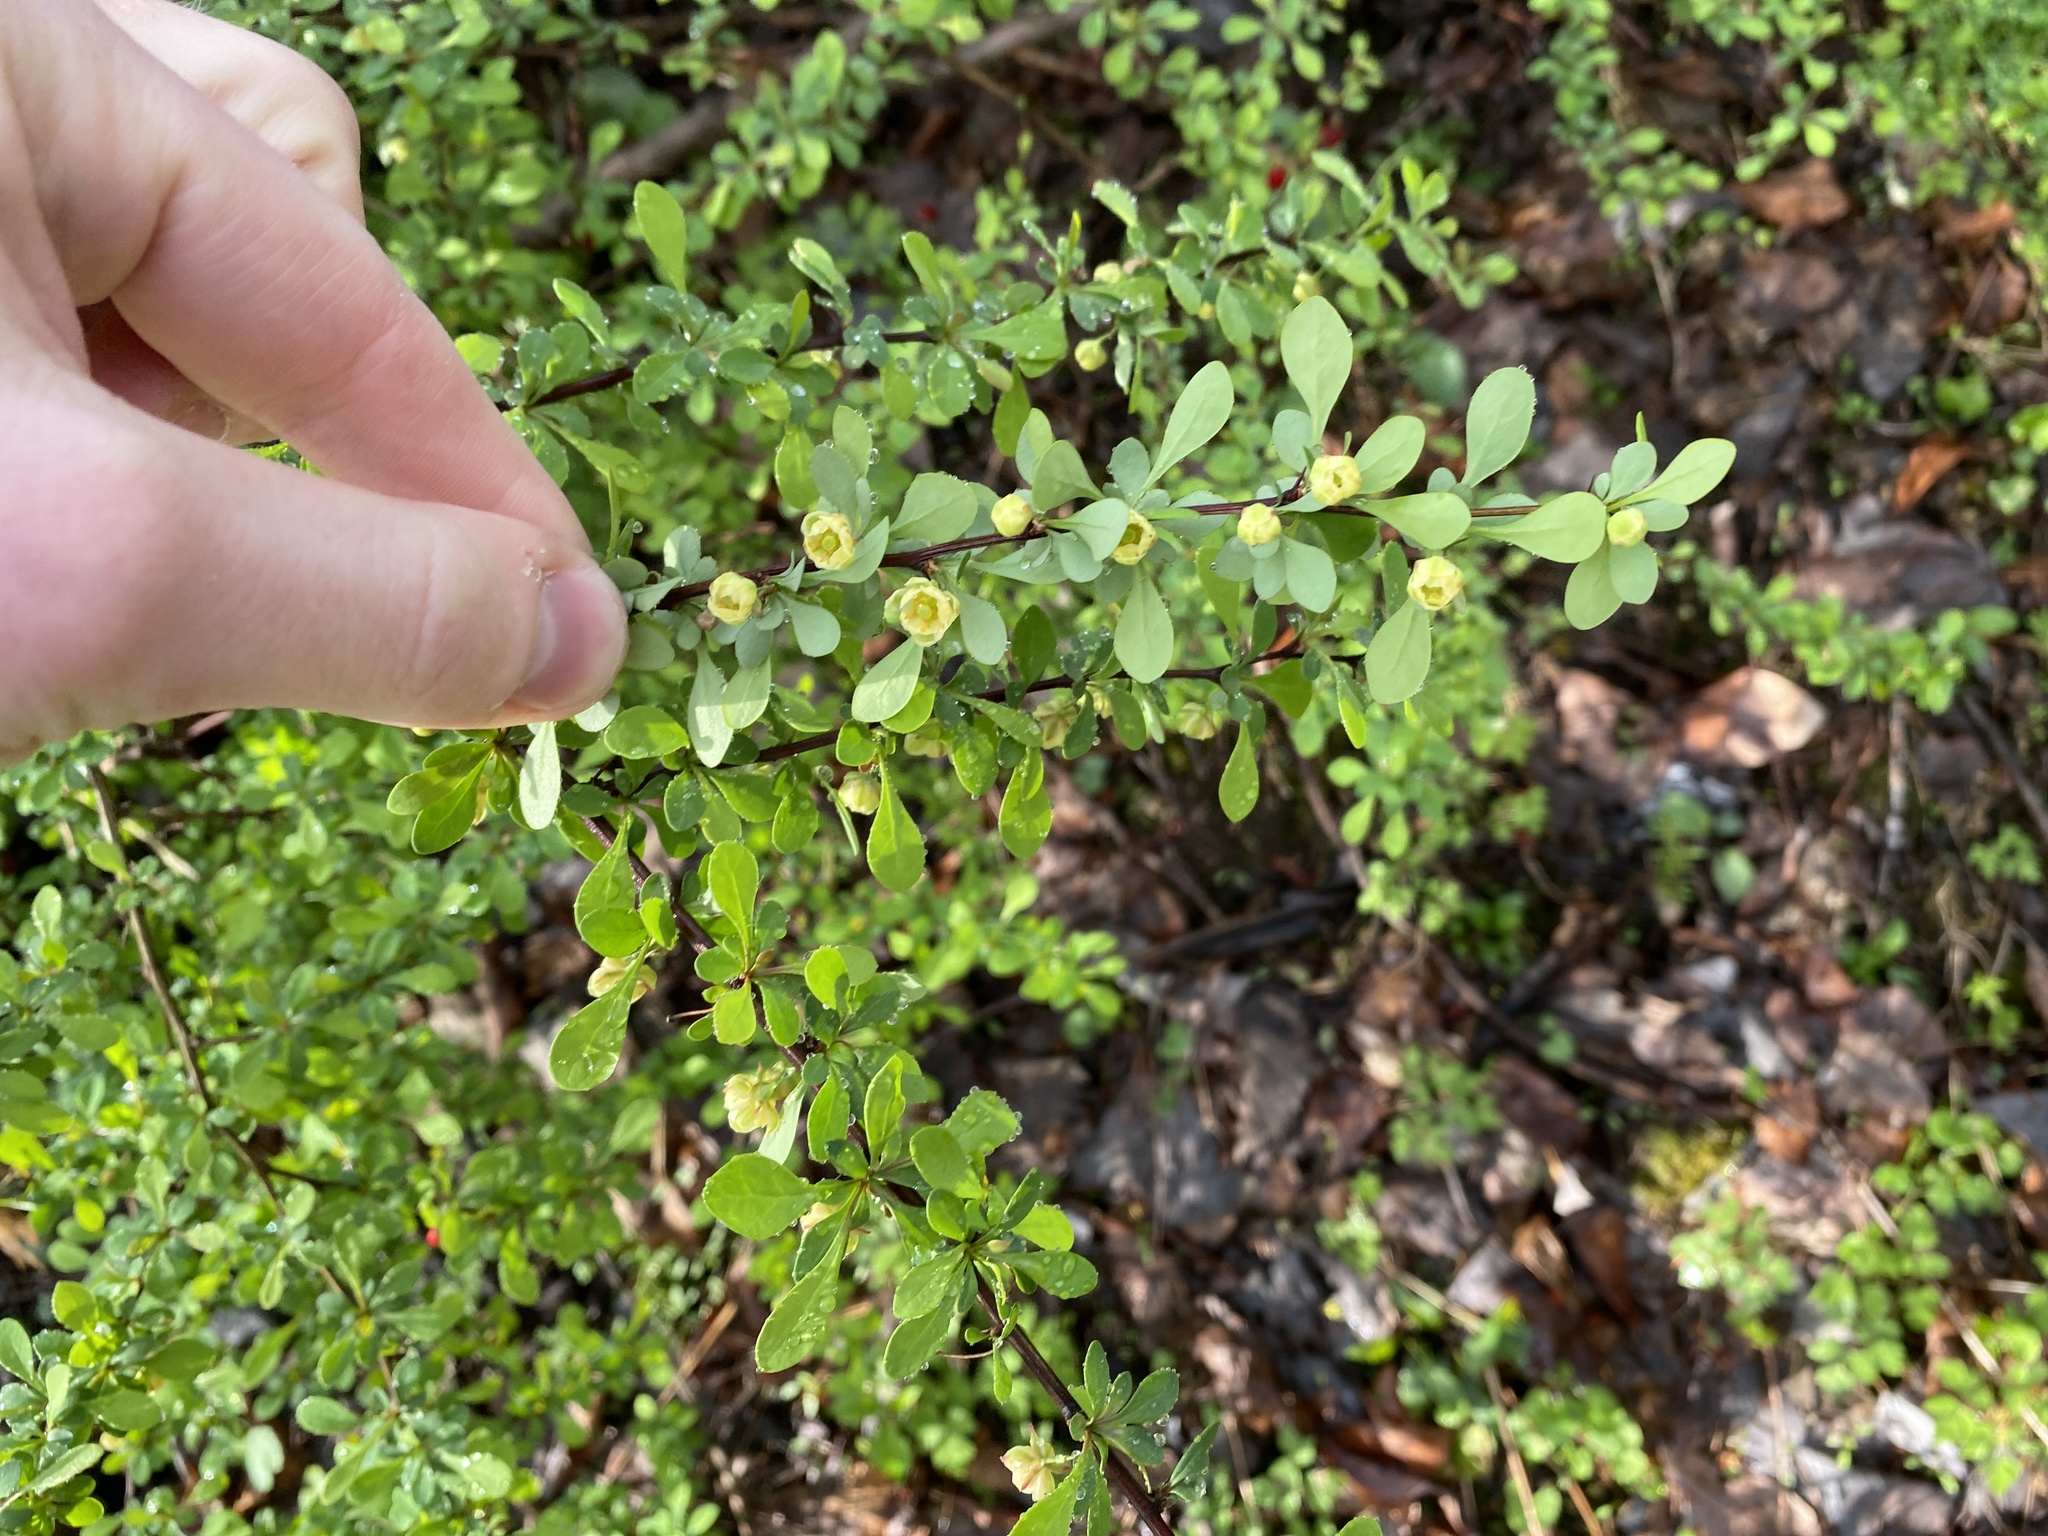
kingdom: Plantae
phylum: Tracheophyta
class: Magnoliopsida
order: Ranunculales
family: Berberidaceae
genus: Berberis
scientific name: Berberis thunbergii
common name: Japanese barberry
